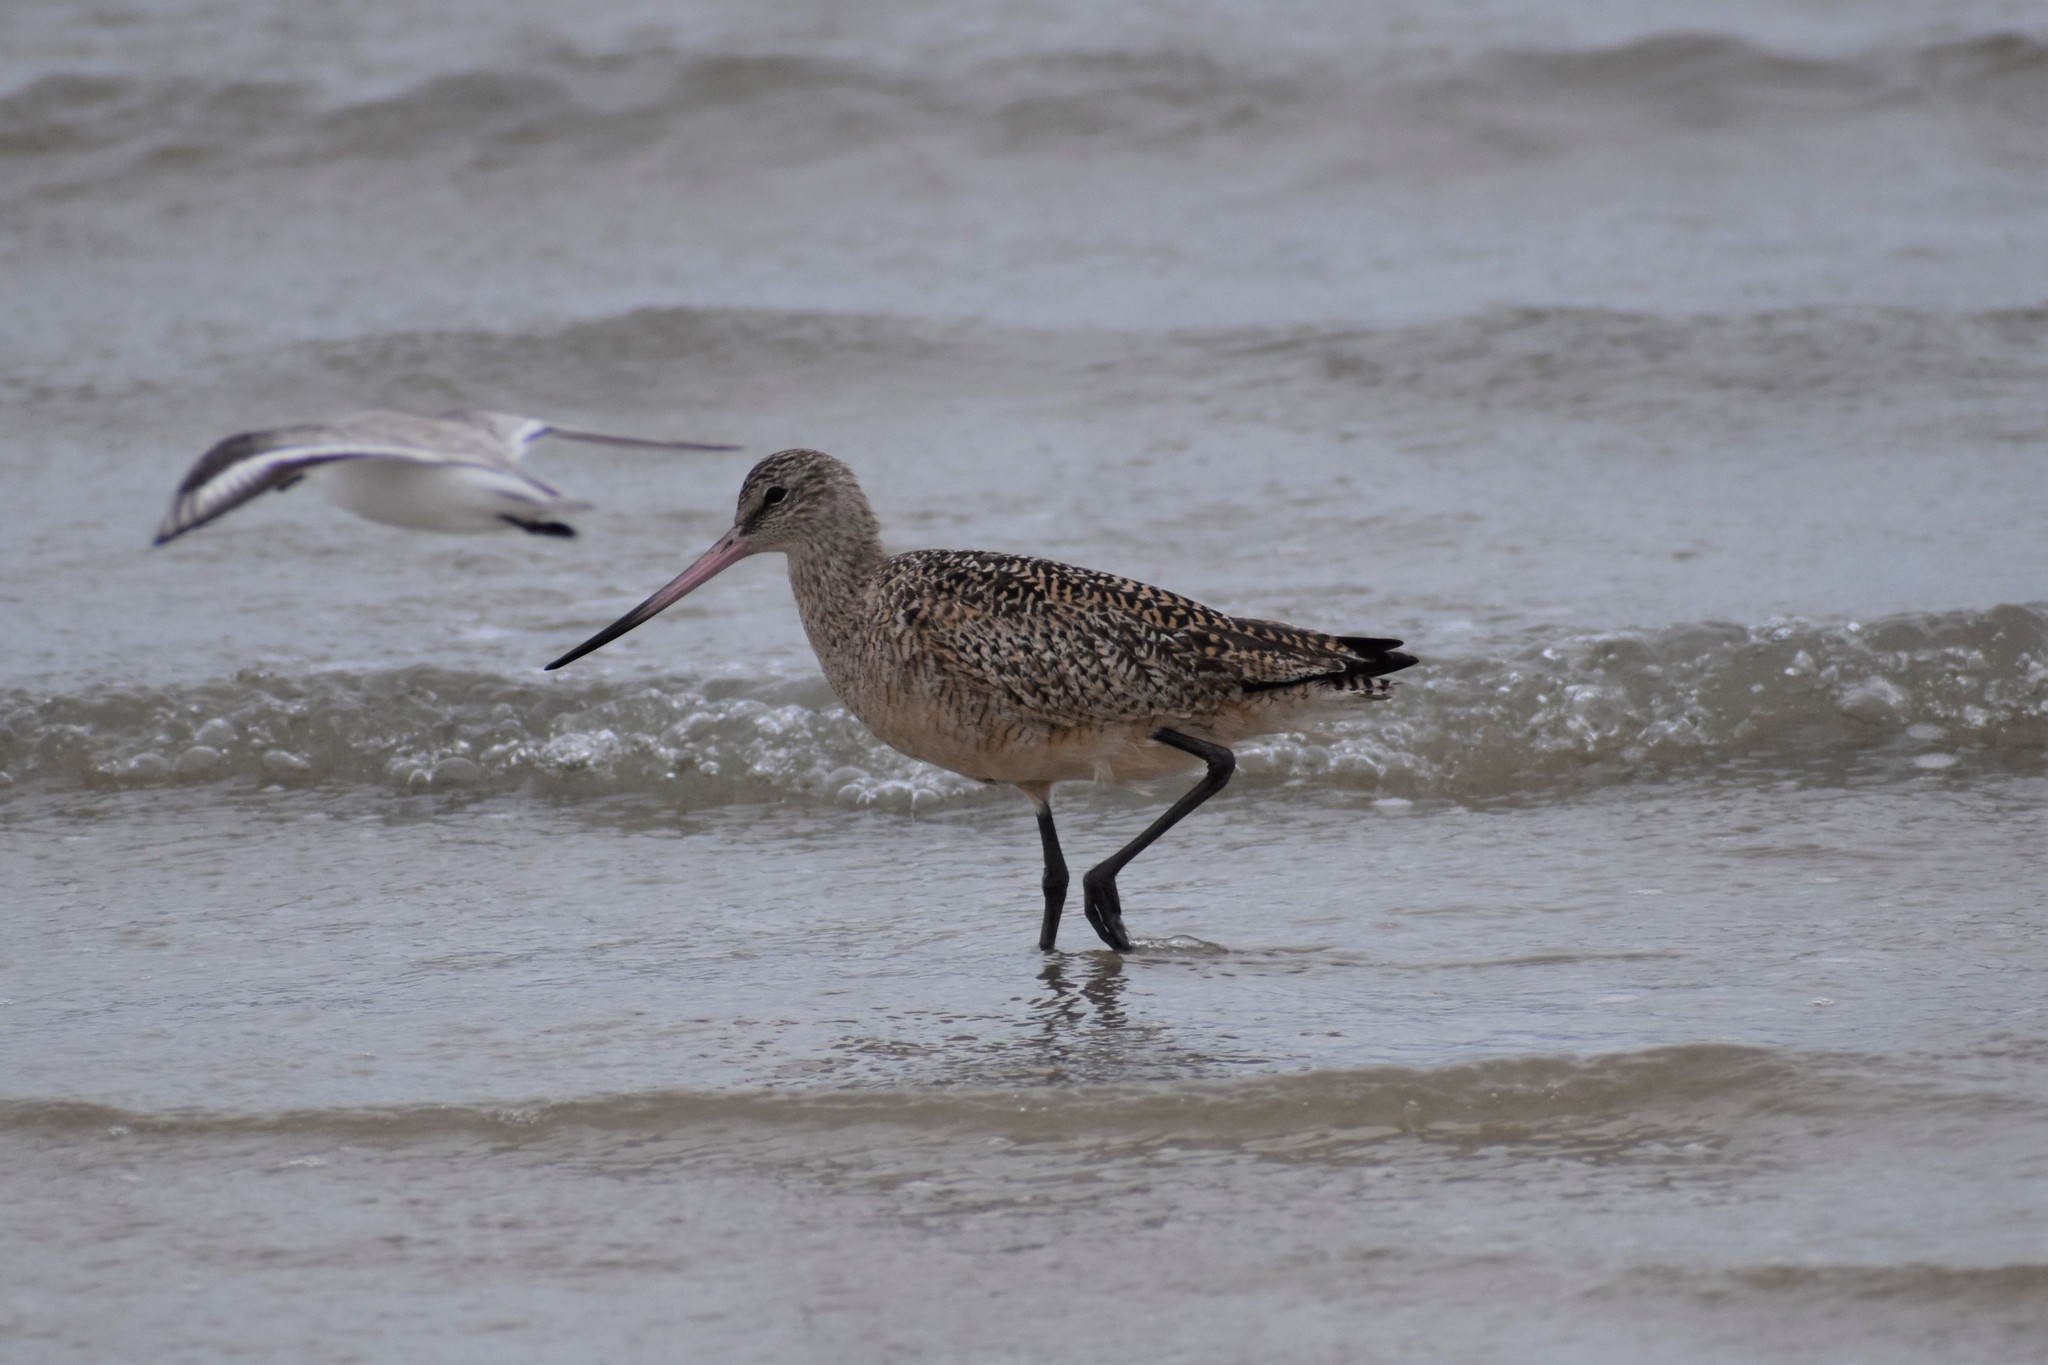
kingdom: Animalia
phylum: Chordata
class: Aves
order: Charadriiformes
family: Scolopacidae
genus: Limosa
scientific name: Limosa fedoa
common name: Marbled godwit
